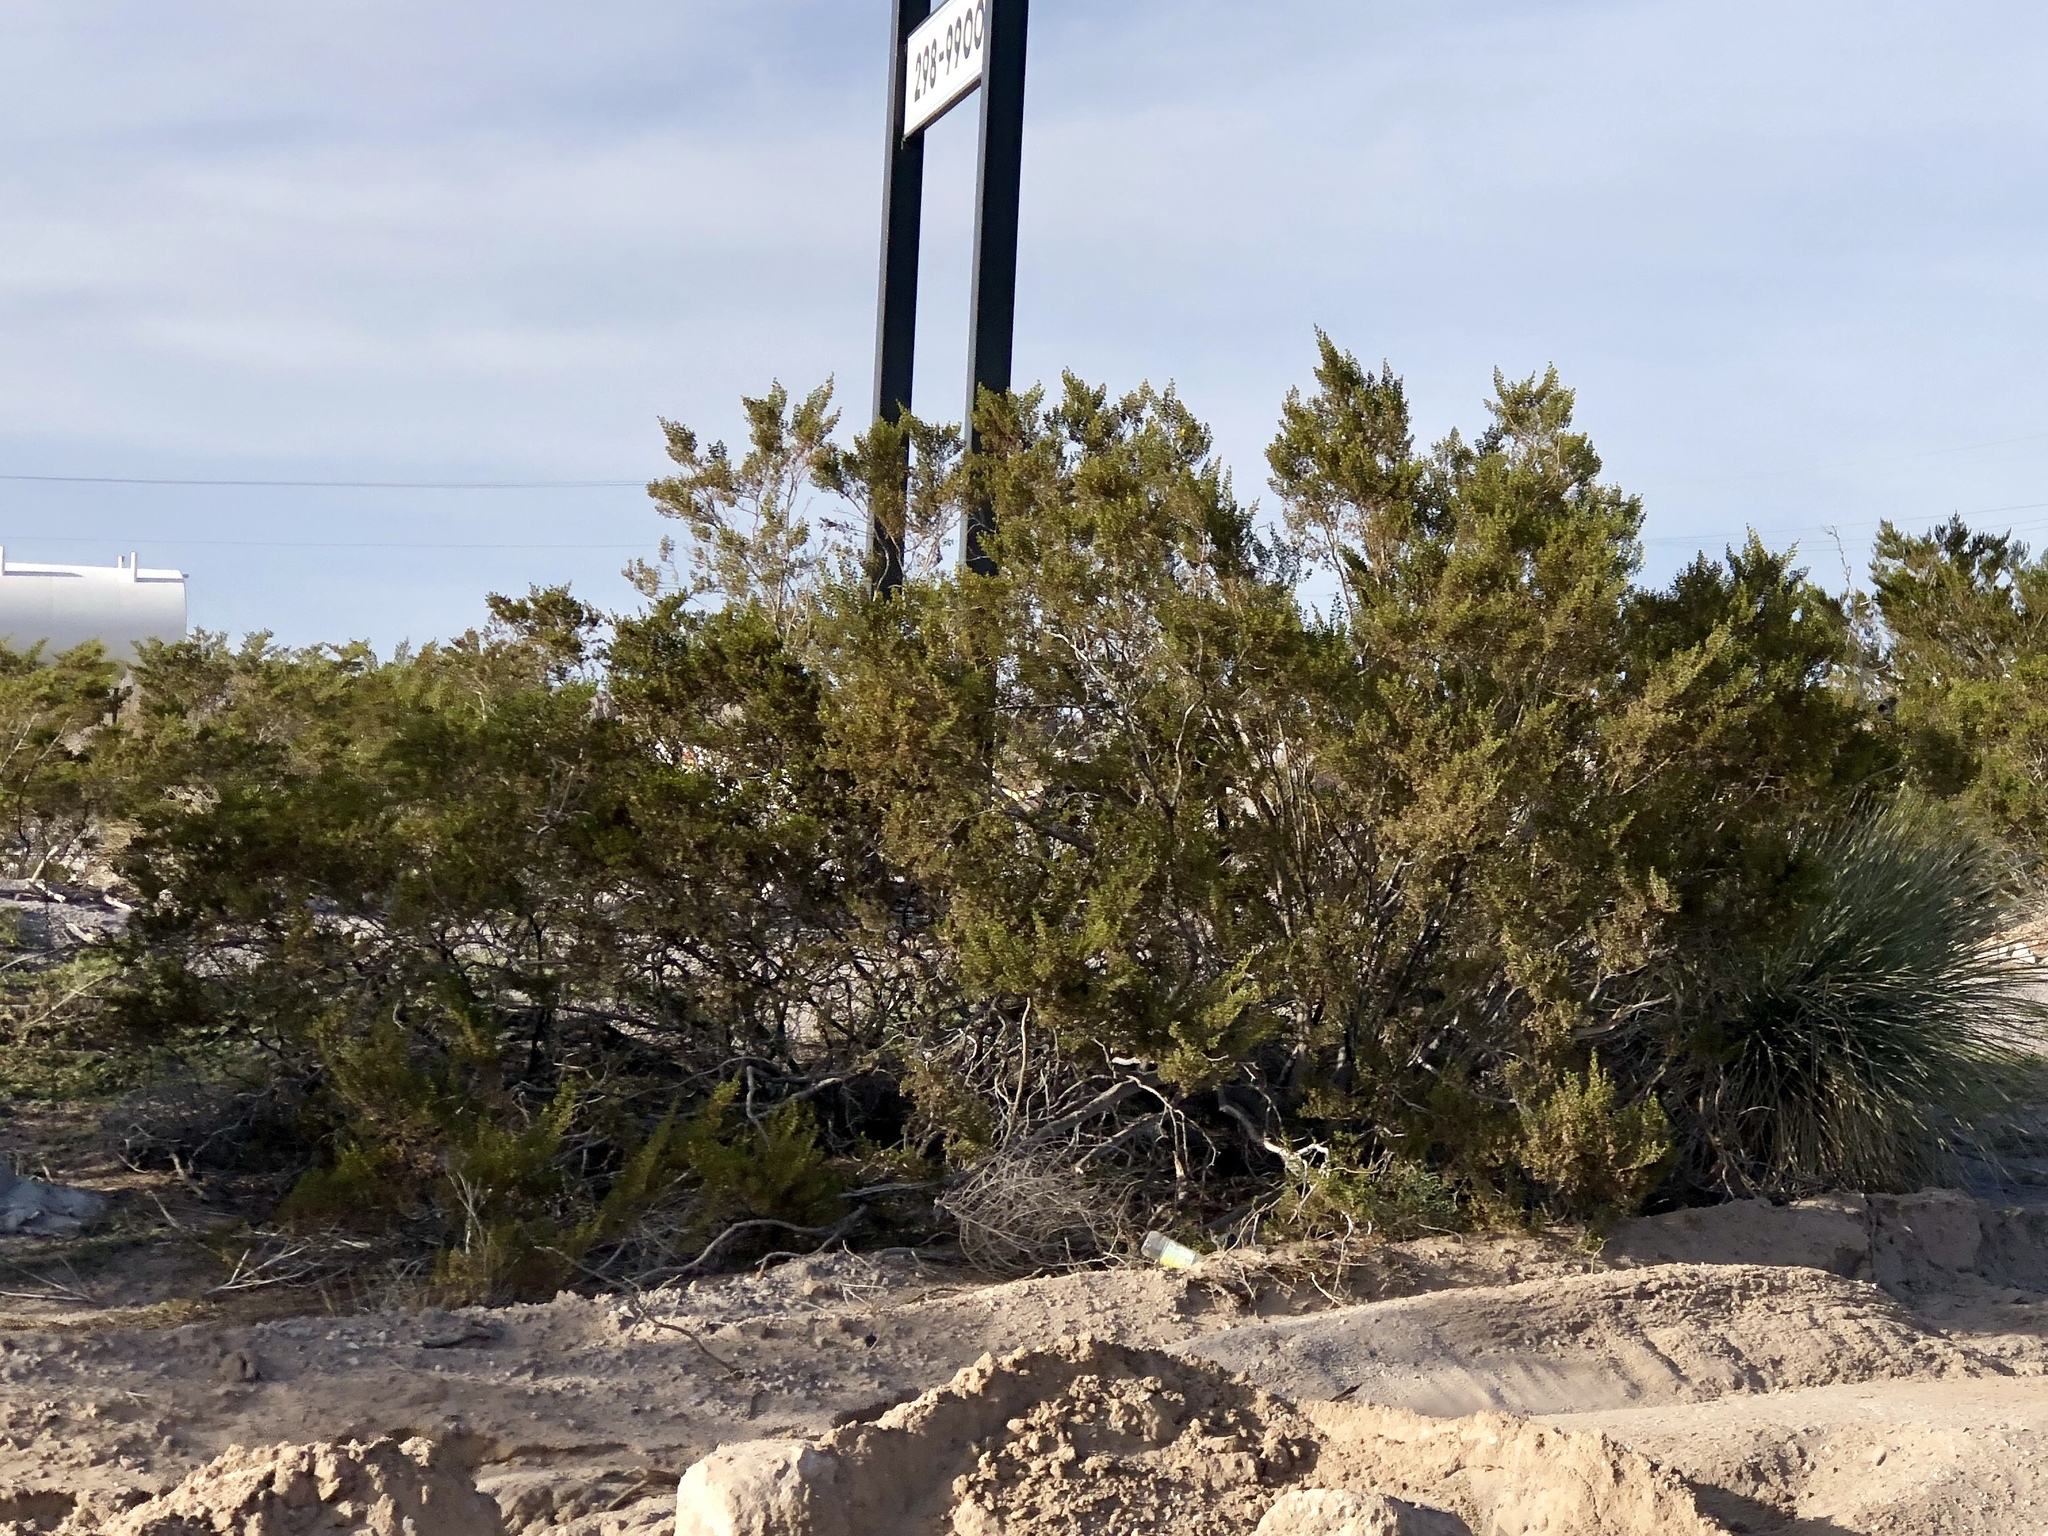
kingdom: Plantae
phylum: Tracheophyta
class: Magnoliopsida
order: Zygophyllales
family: Zygophyllaceae
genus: Larrea
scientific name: Larrea tridentata
